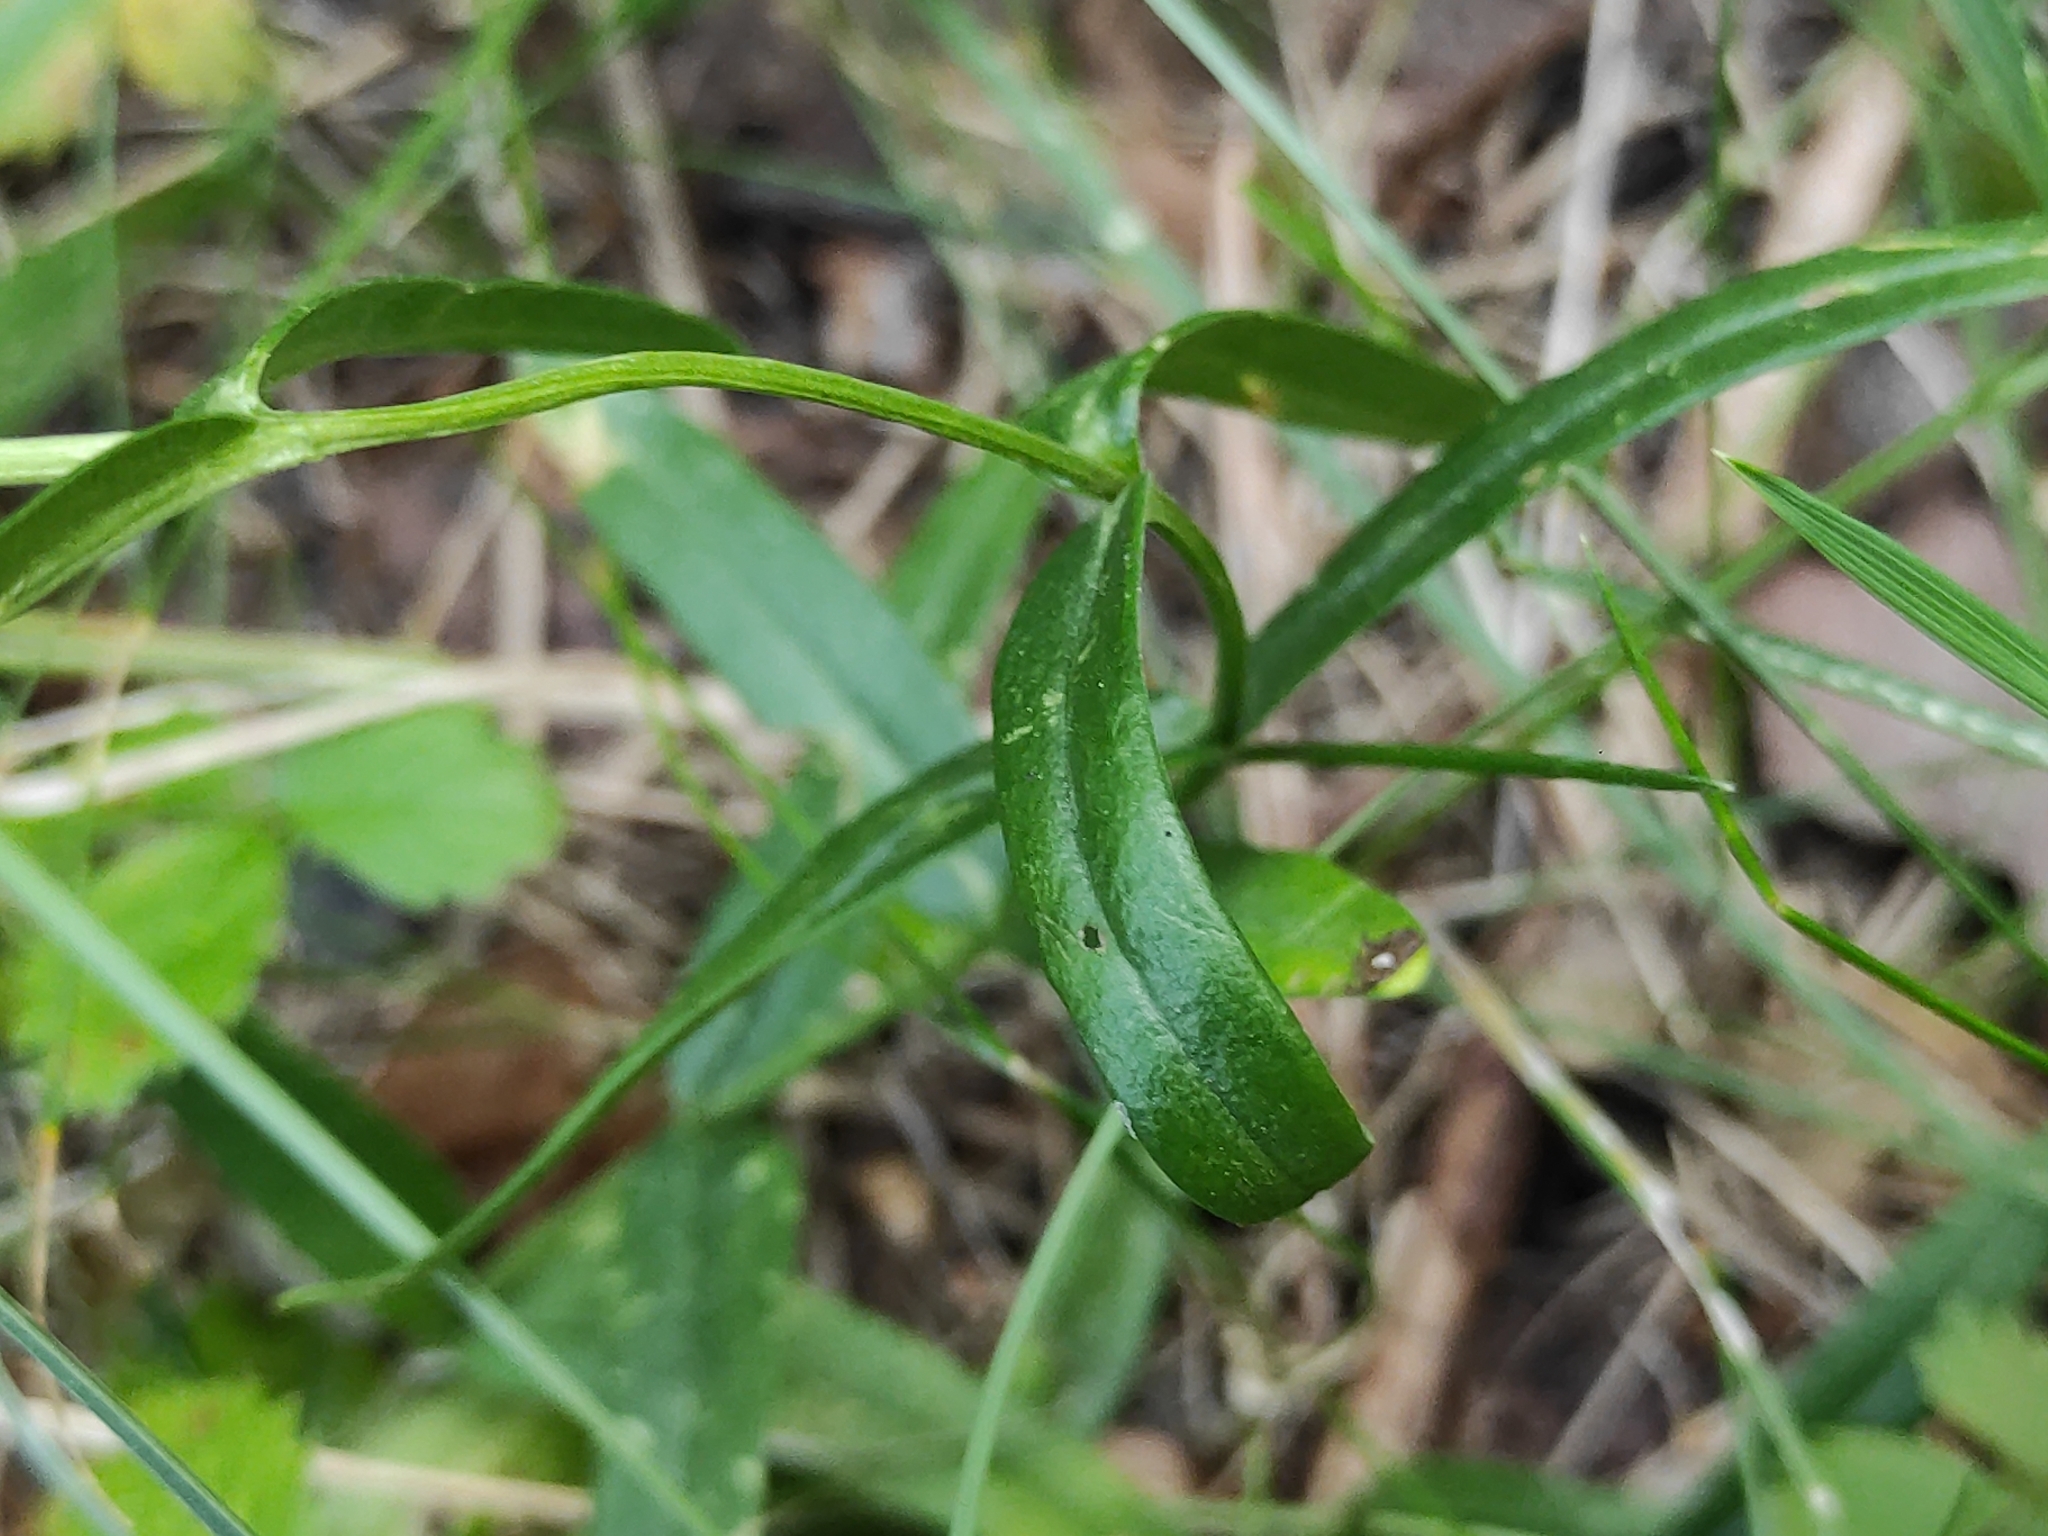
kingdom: Plantae
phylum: Tracheophyta
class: Magnoliopsida
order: Gentianales
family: Gentianaceae
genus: Gentiana
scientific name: Gentiana pneumonanthe
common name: Marsh gentian
